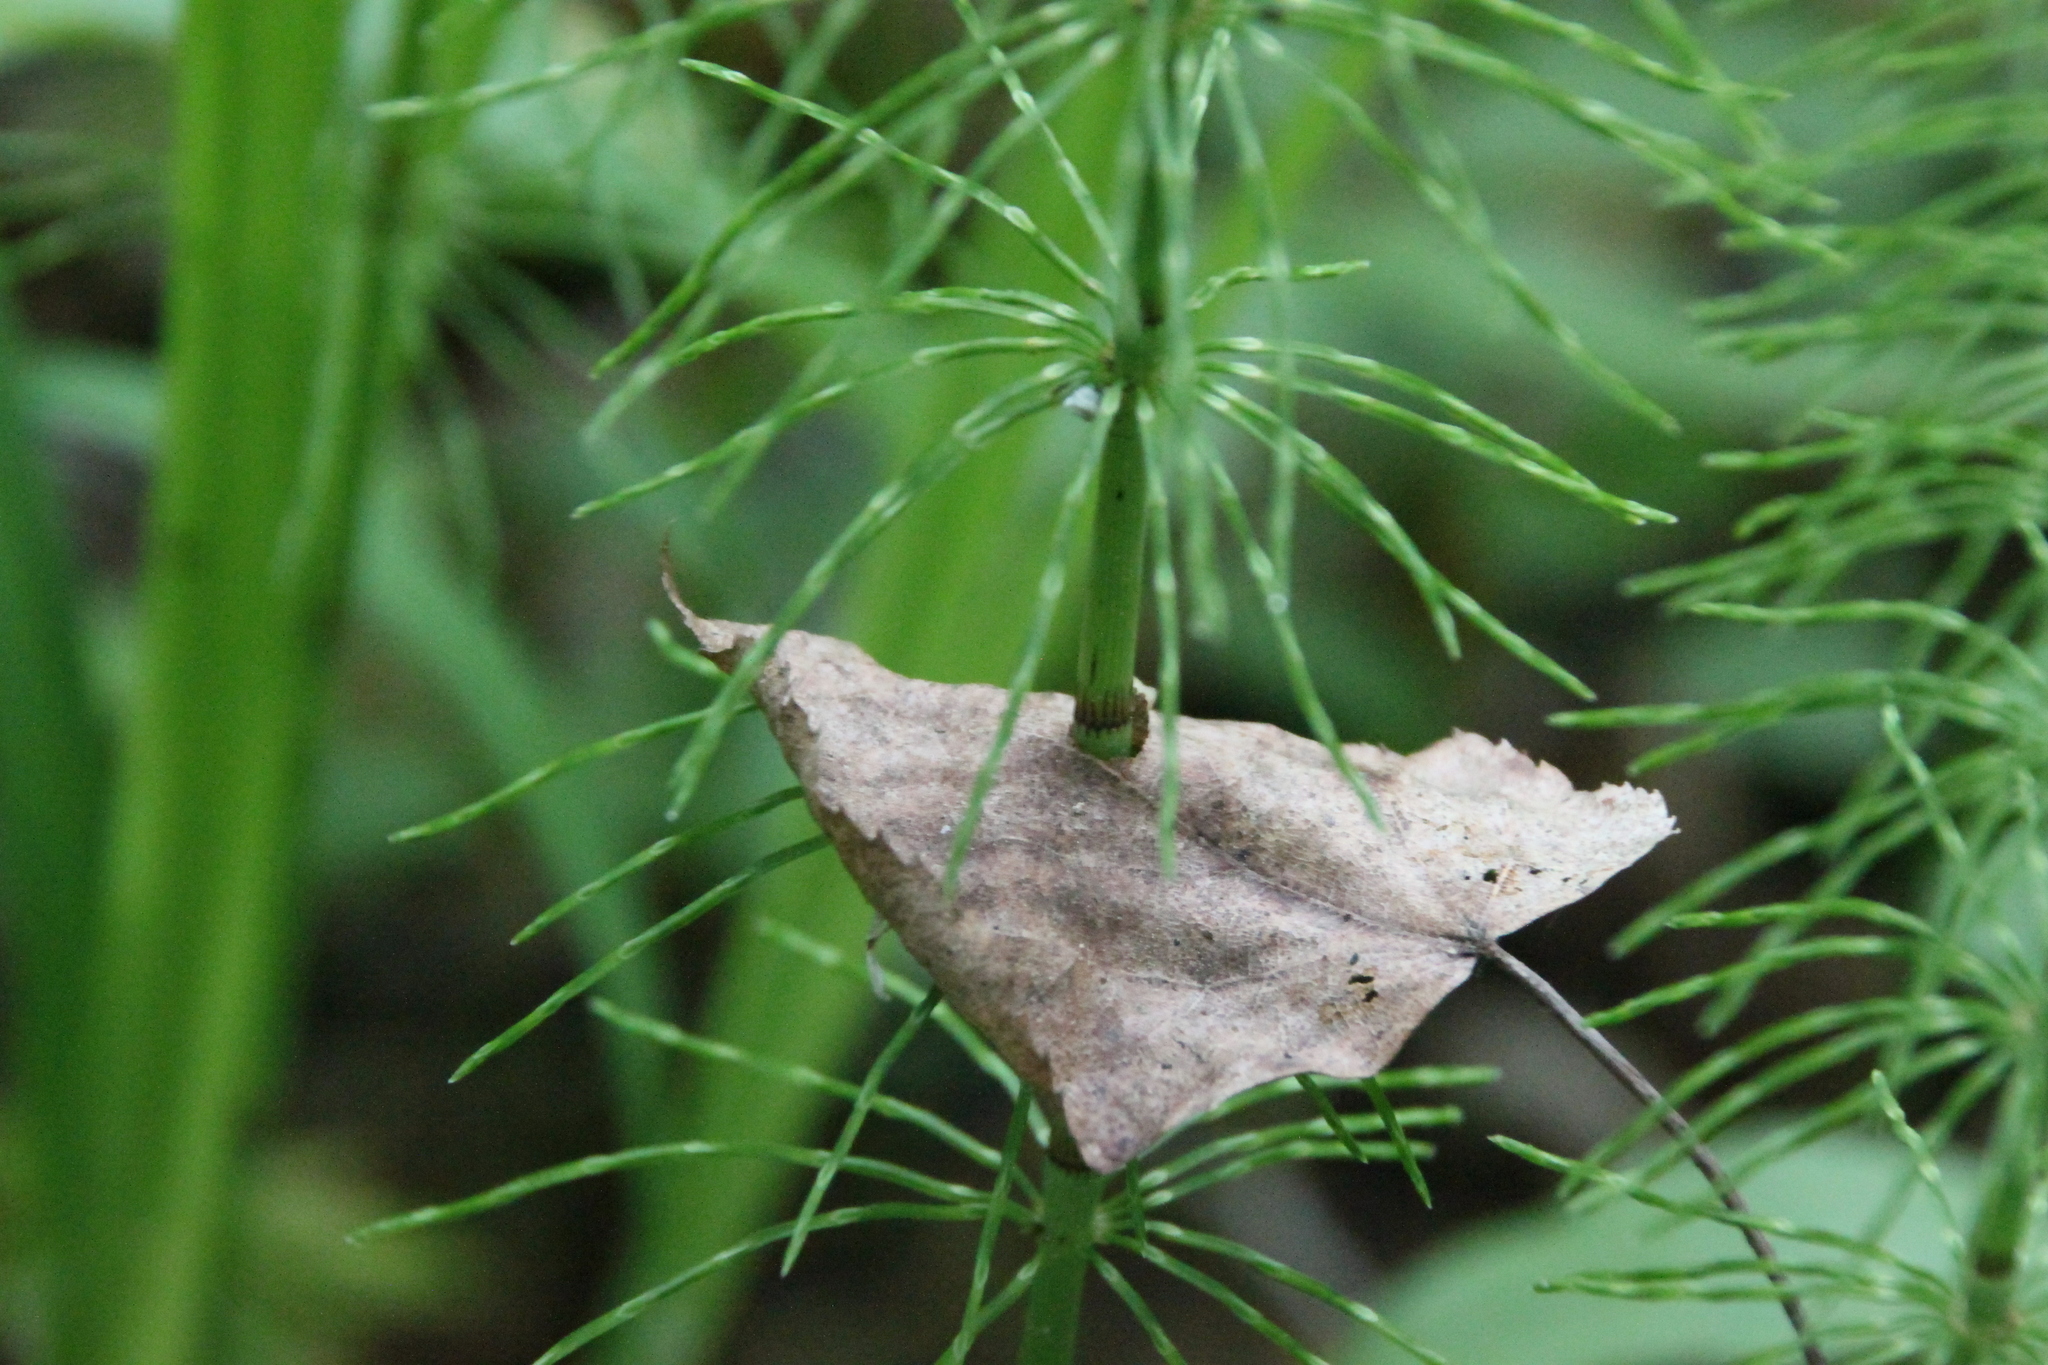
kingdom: Plantae
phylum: Tracheophyta
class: Polypodiopsida
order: Equisetales
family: Equisetaceae
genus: Equisetum
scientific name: Equisetum pratense
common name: Meadow horsetail
